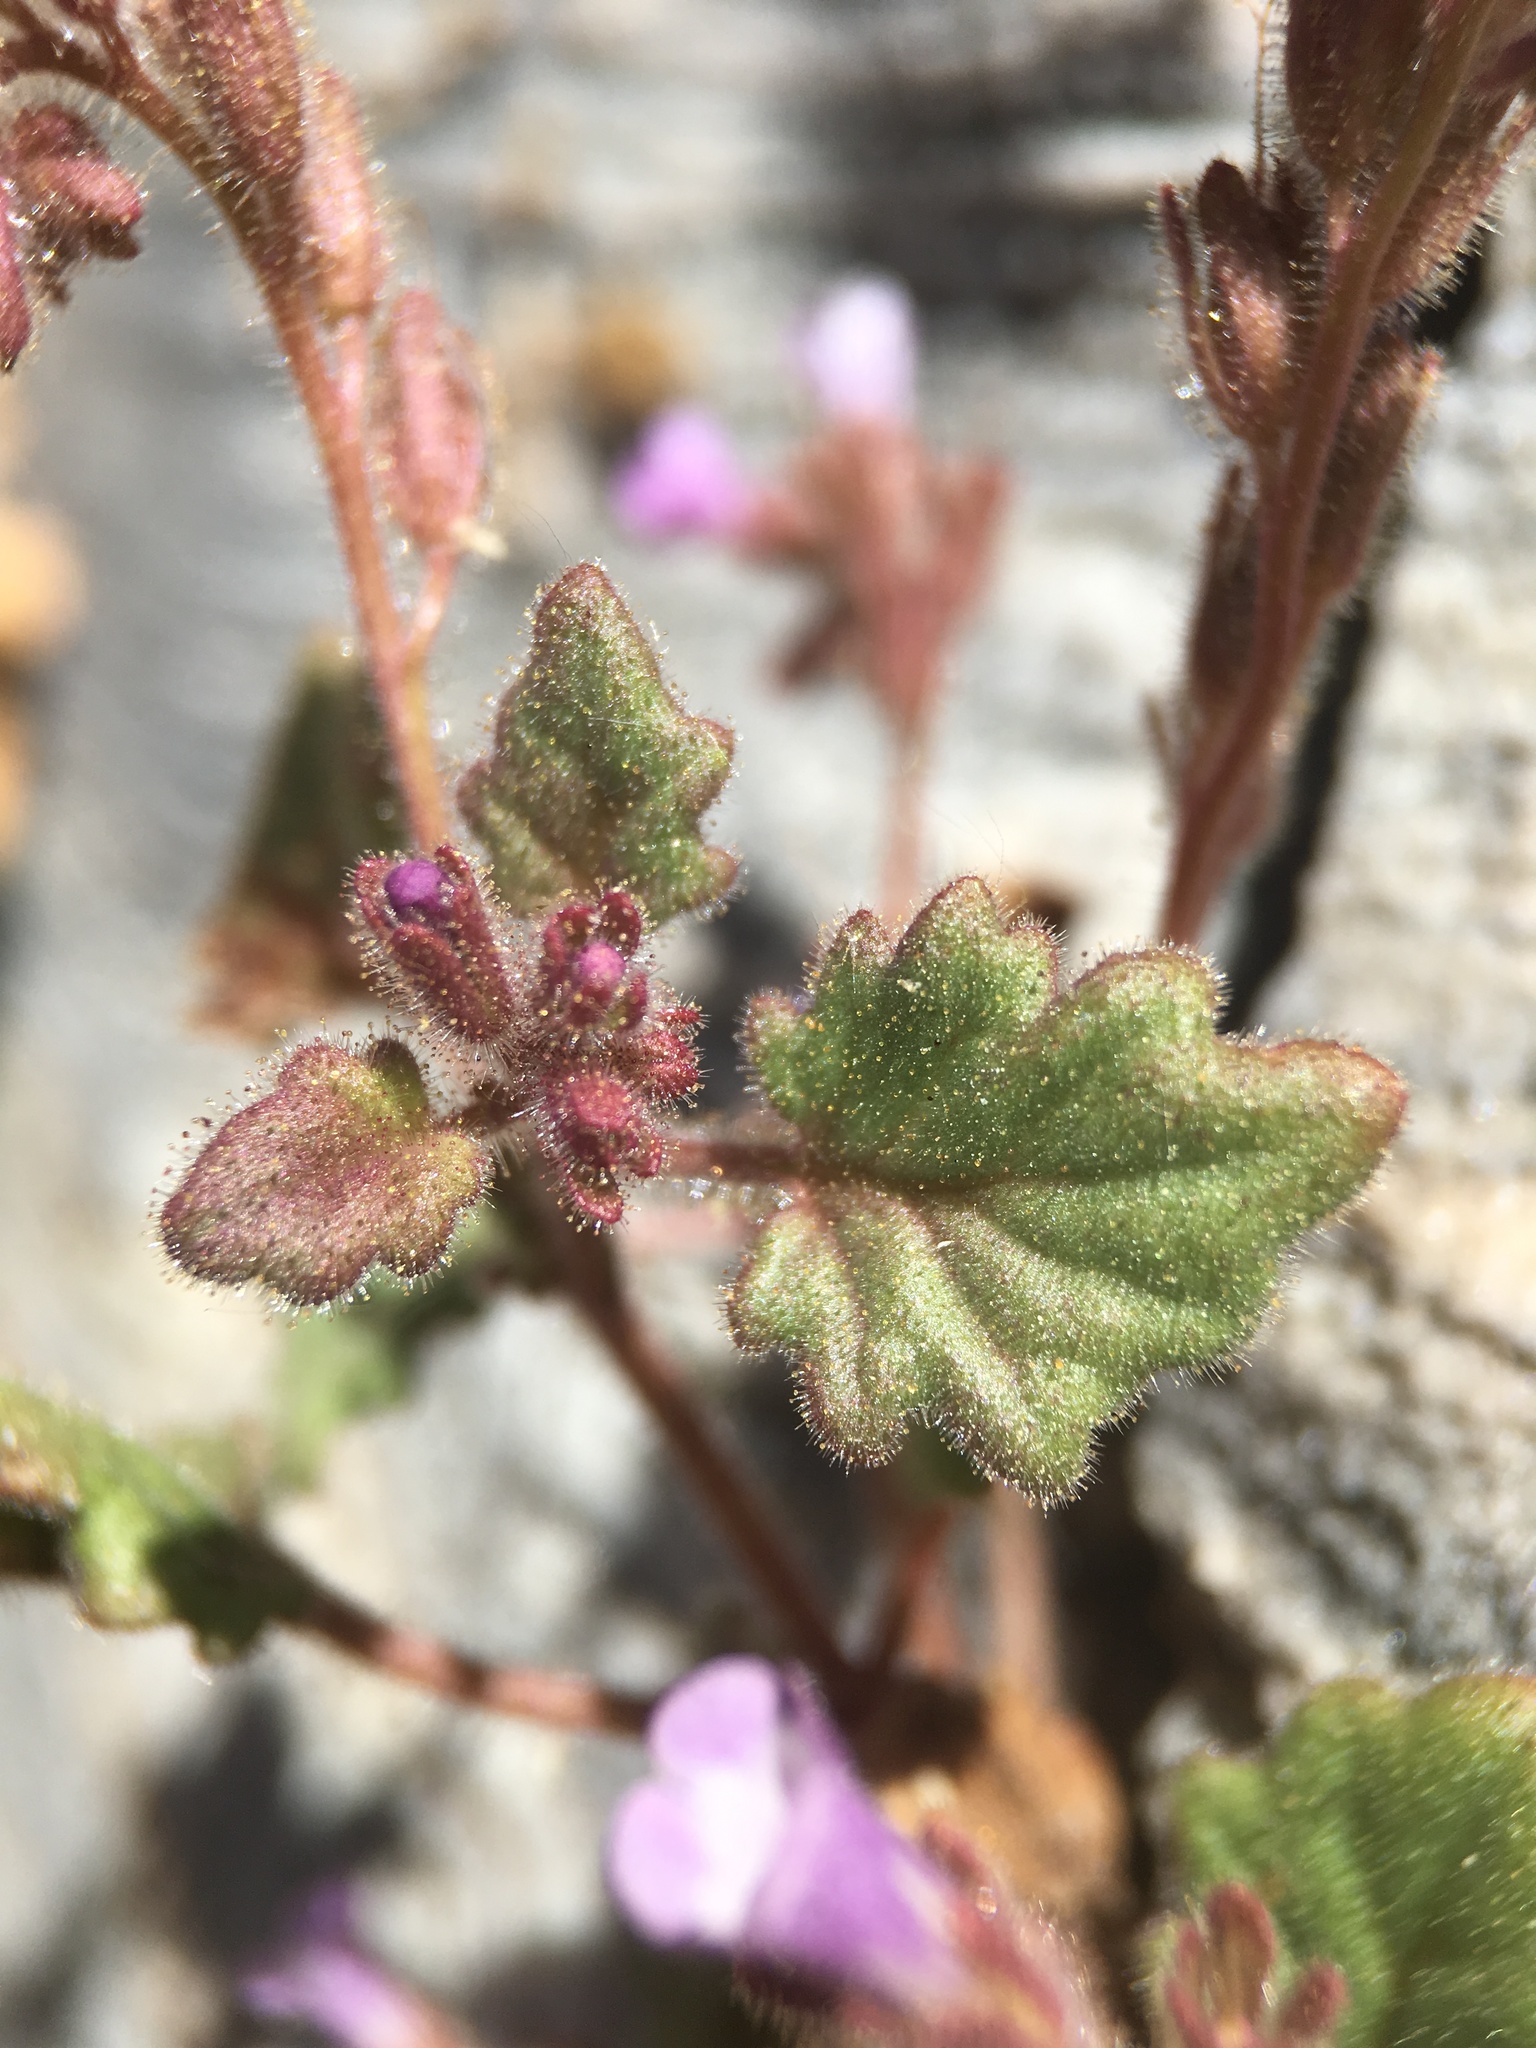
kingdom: Plantae
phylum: Tracheophyta
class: Magnoliopsida
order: Boraginales
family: Hydrophyllaceae
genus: Phacelia
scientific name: Phacelia mustelina
